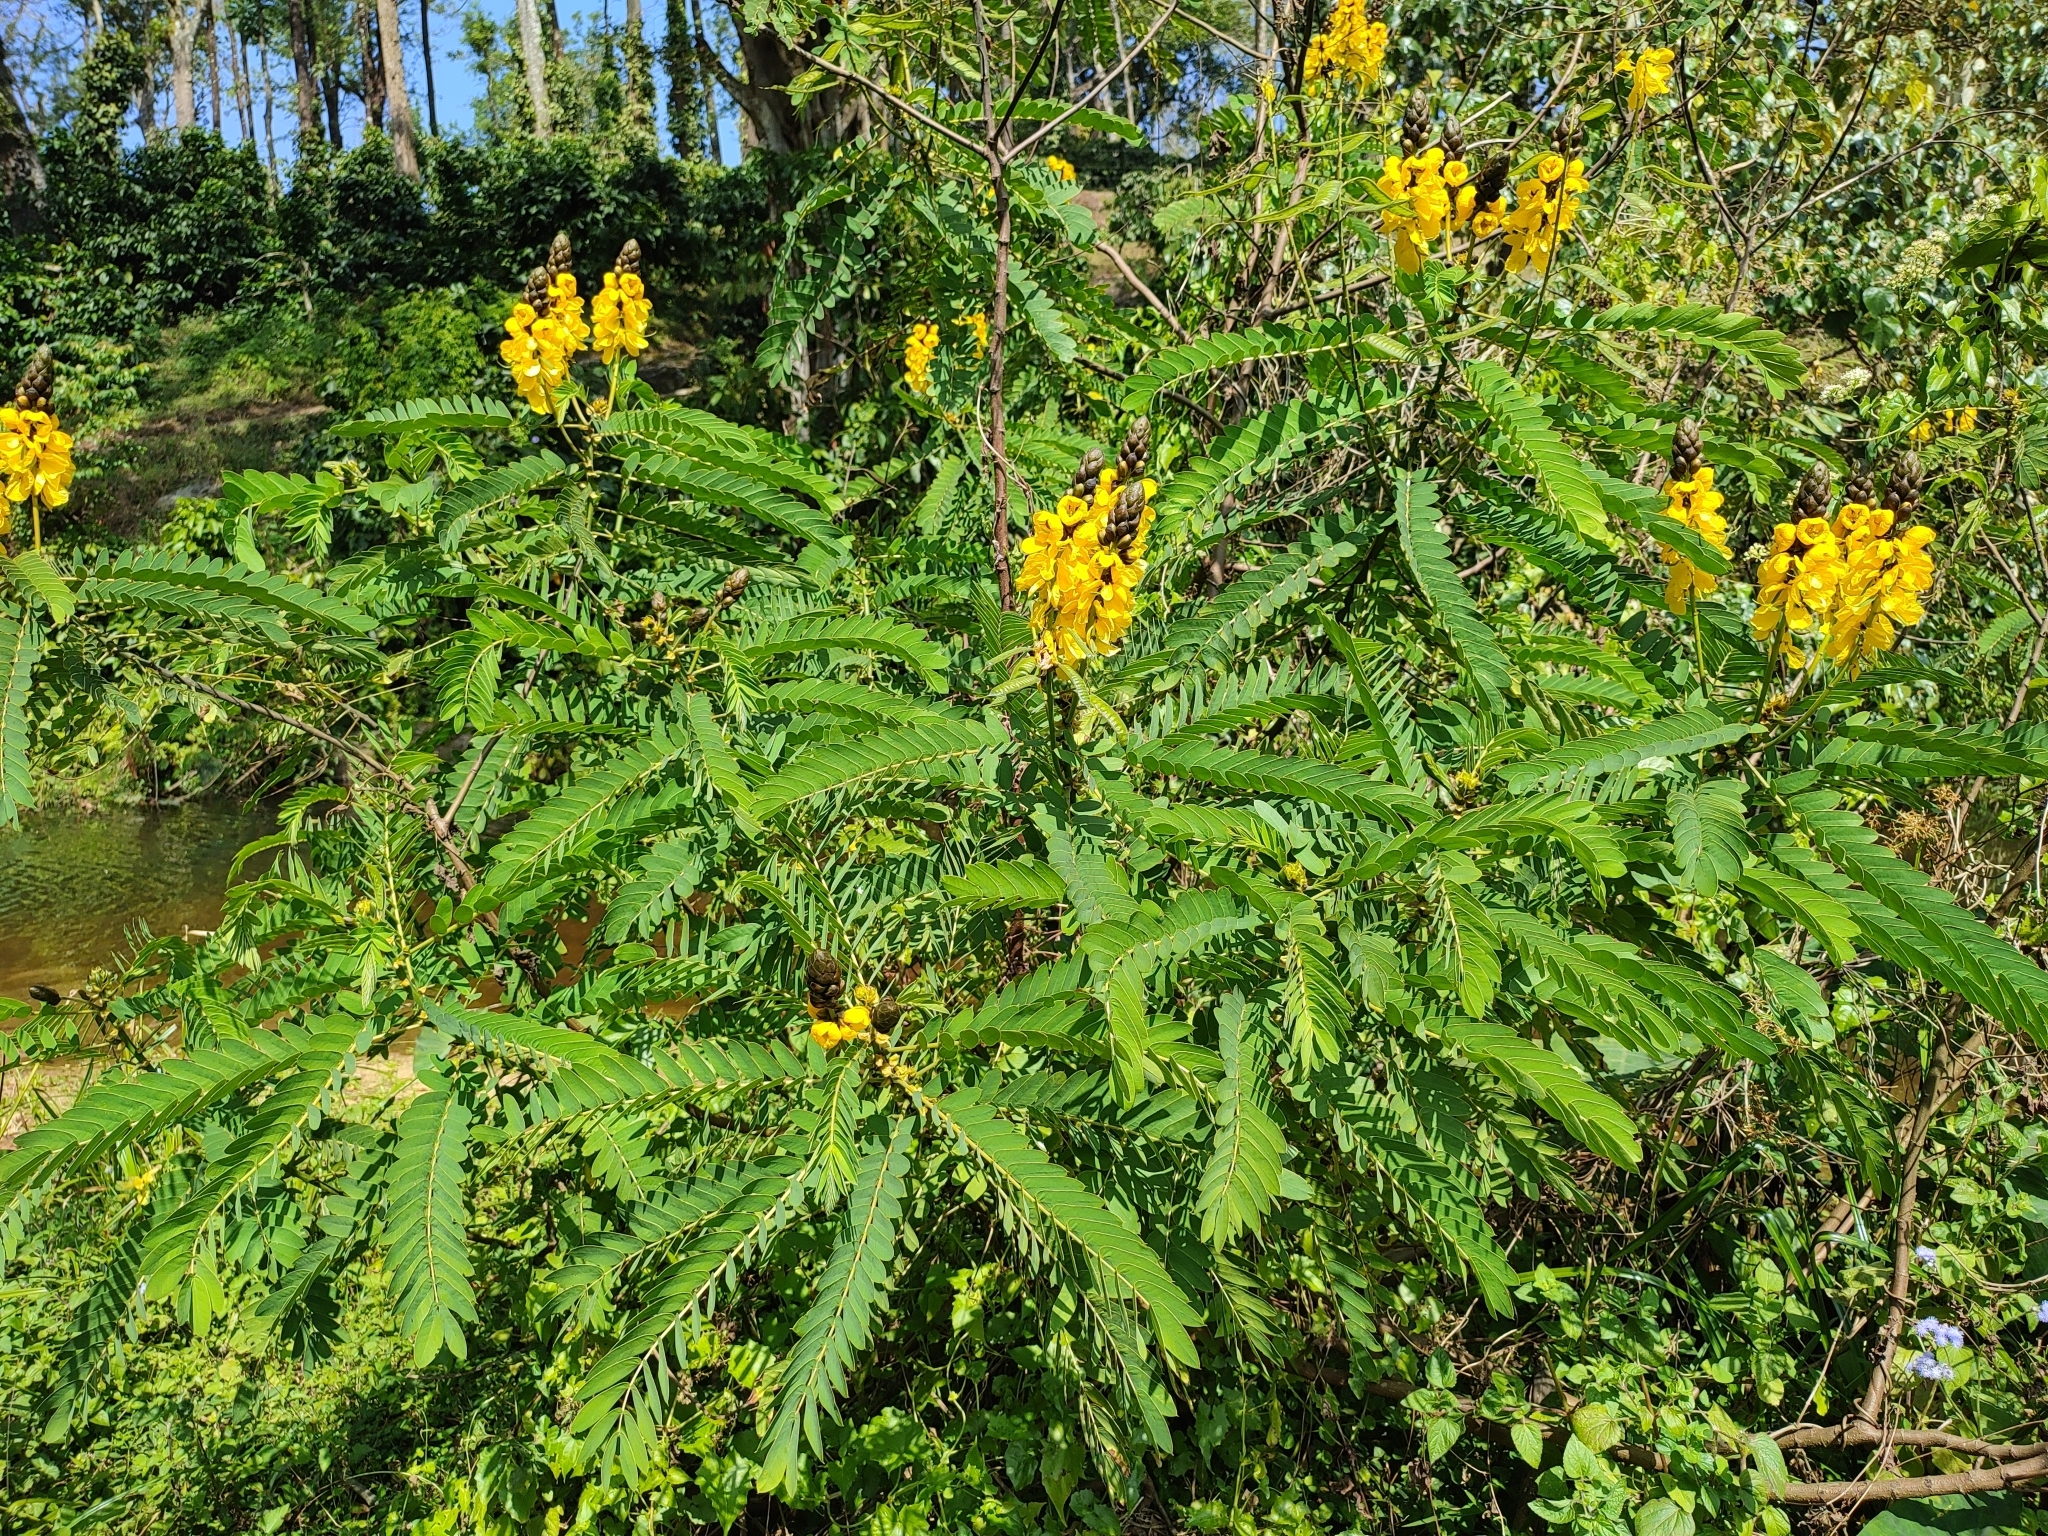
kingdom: Plantae
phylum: Tracheophyta
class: Magnoliopsida
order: Fabales
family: Fabaceae
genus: Senna
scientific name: Senna didymobotrya
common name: African senna
